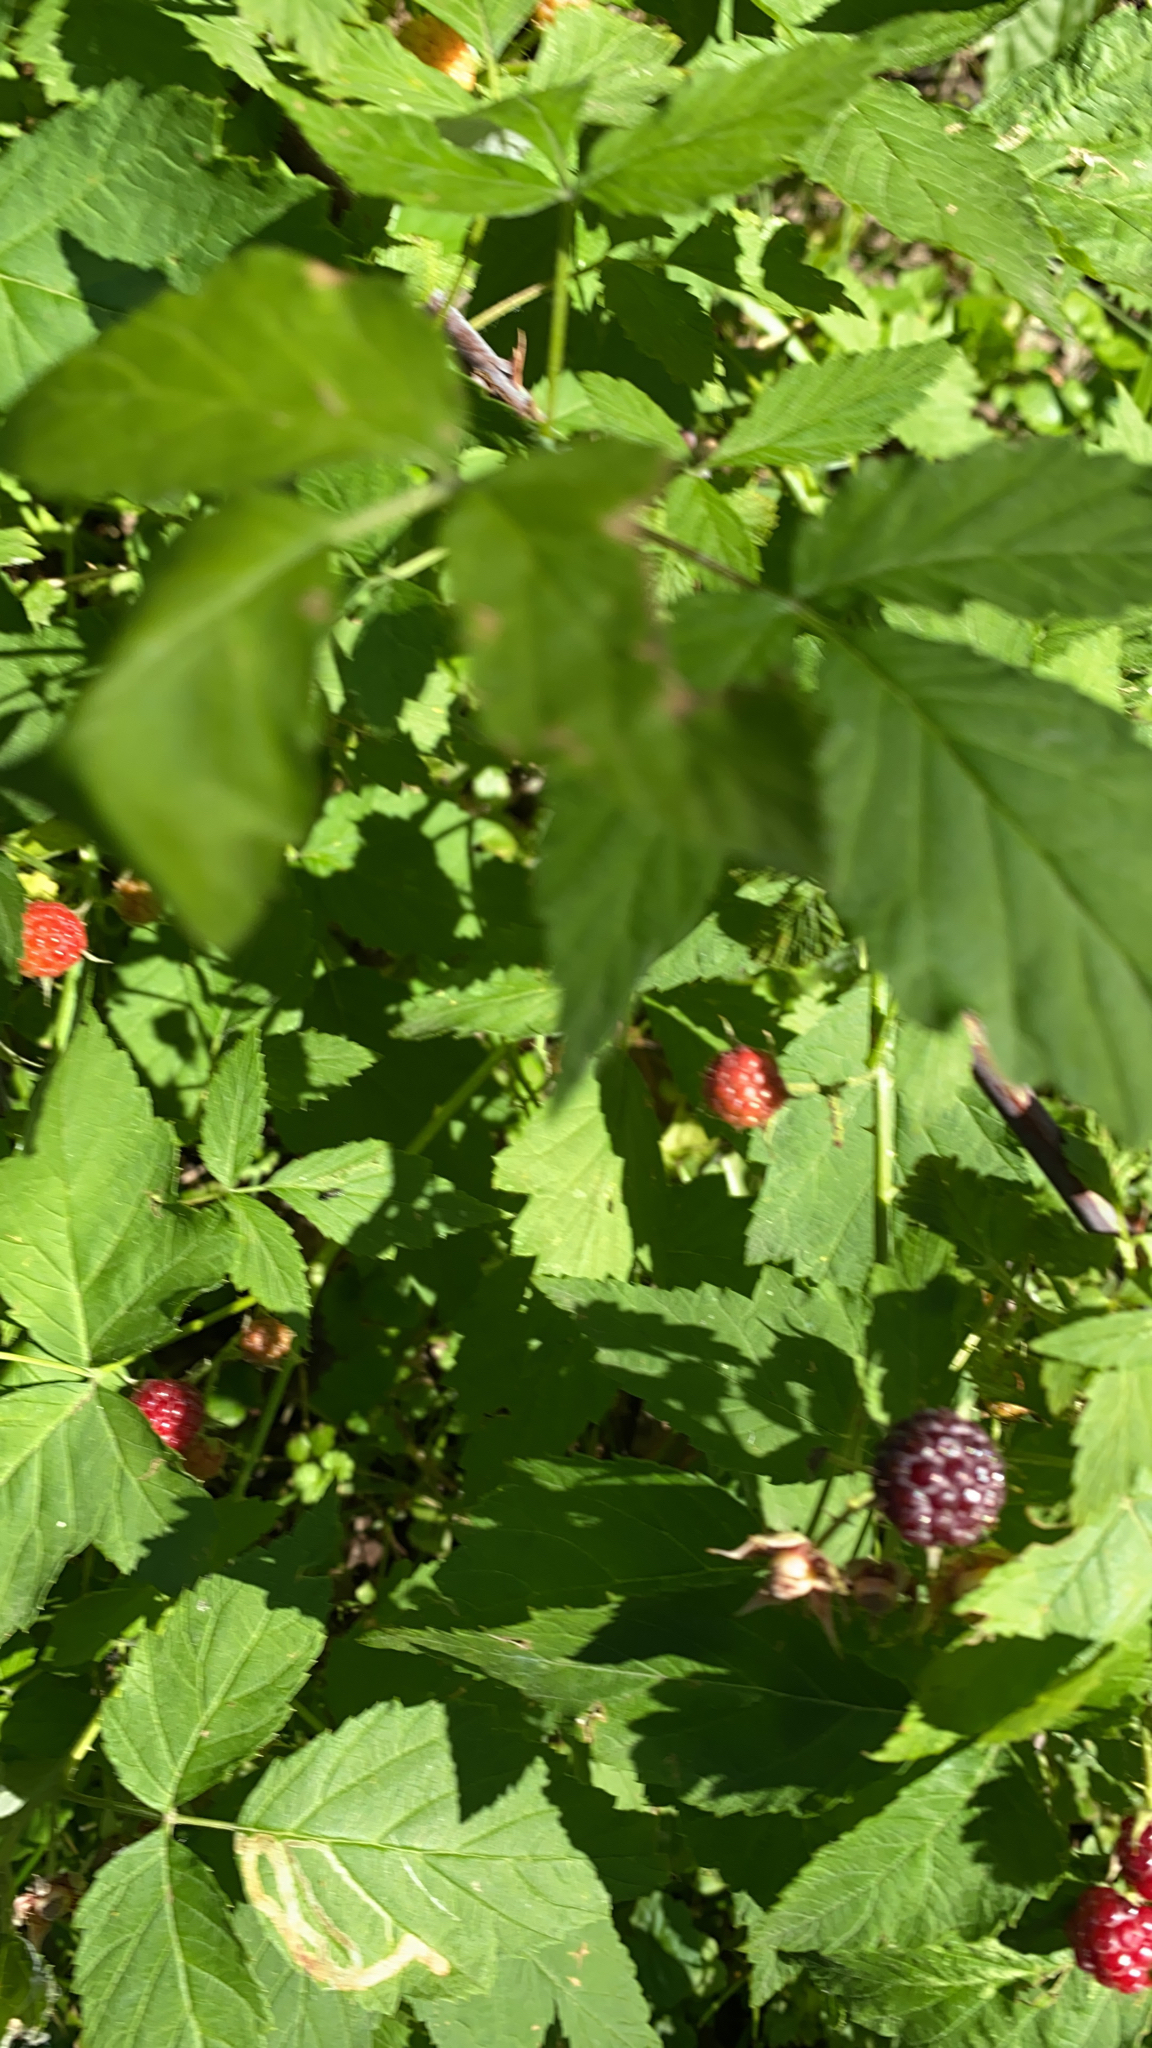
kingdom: Plantae
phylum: Tracheophyta
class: Magnoliopsida
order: Rosales
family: Rosaceae
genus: Rubus
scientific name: Rubus occidentalis
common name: Black raspberry
